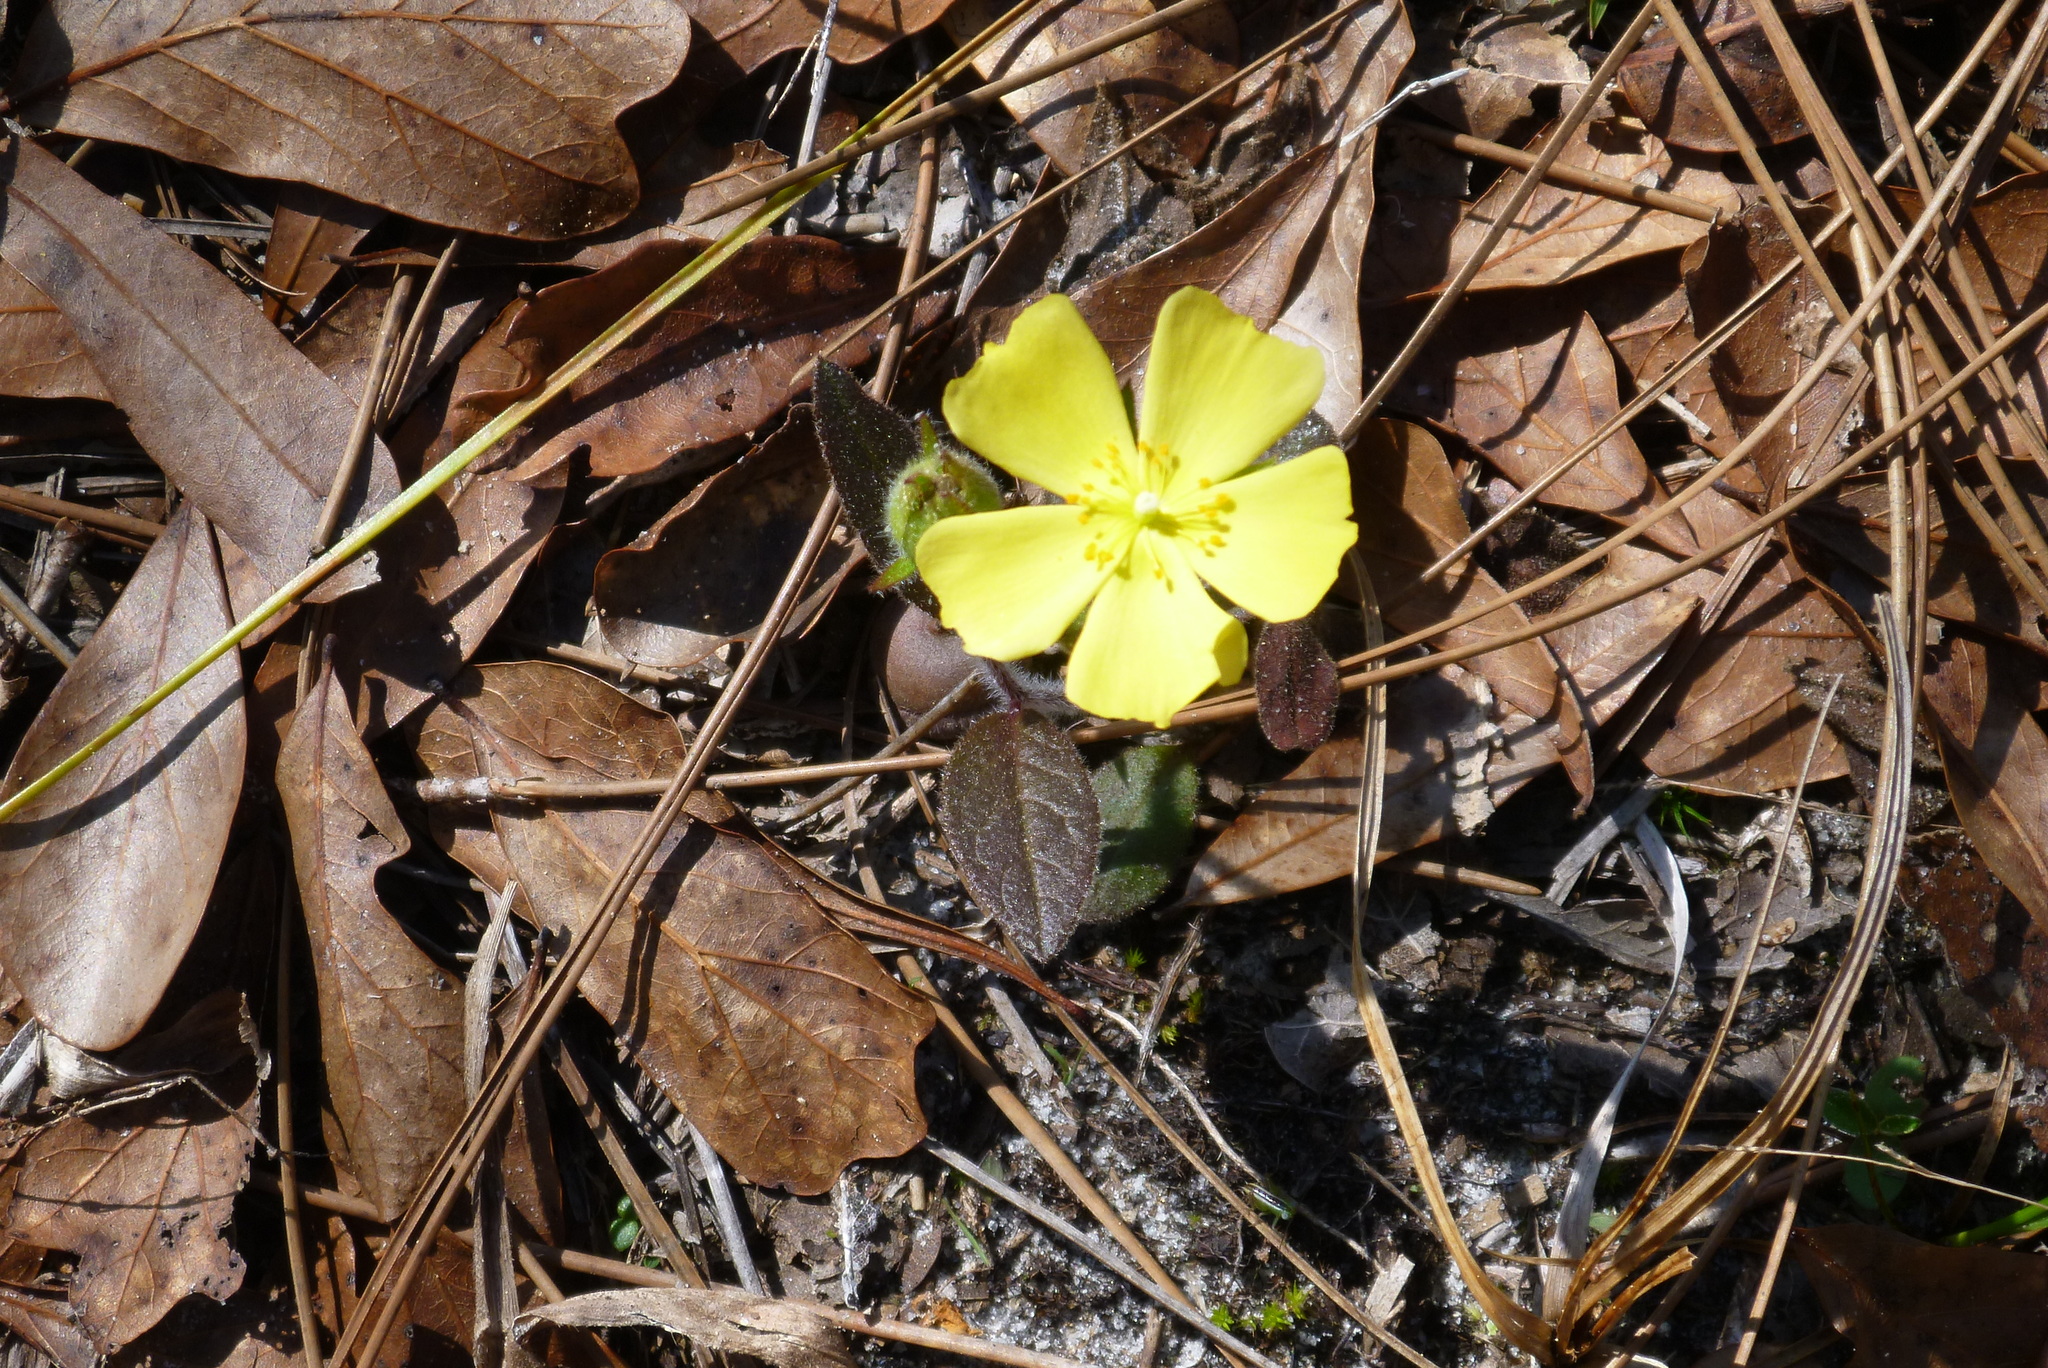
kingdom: Plantae
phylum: Tracheophyta
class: Magnoliopsida
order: Malvales
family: Cistaceae
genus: Crocanthemum
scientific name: Crocanthemum carolinianum
